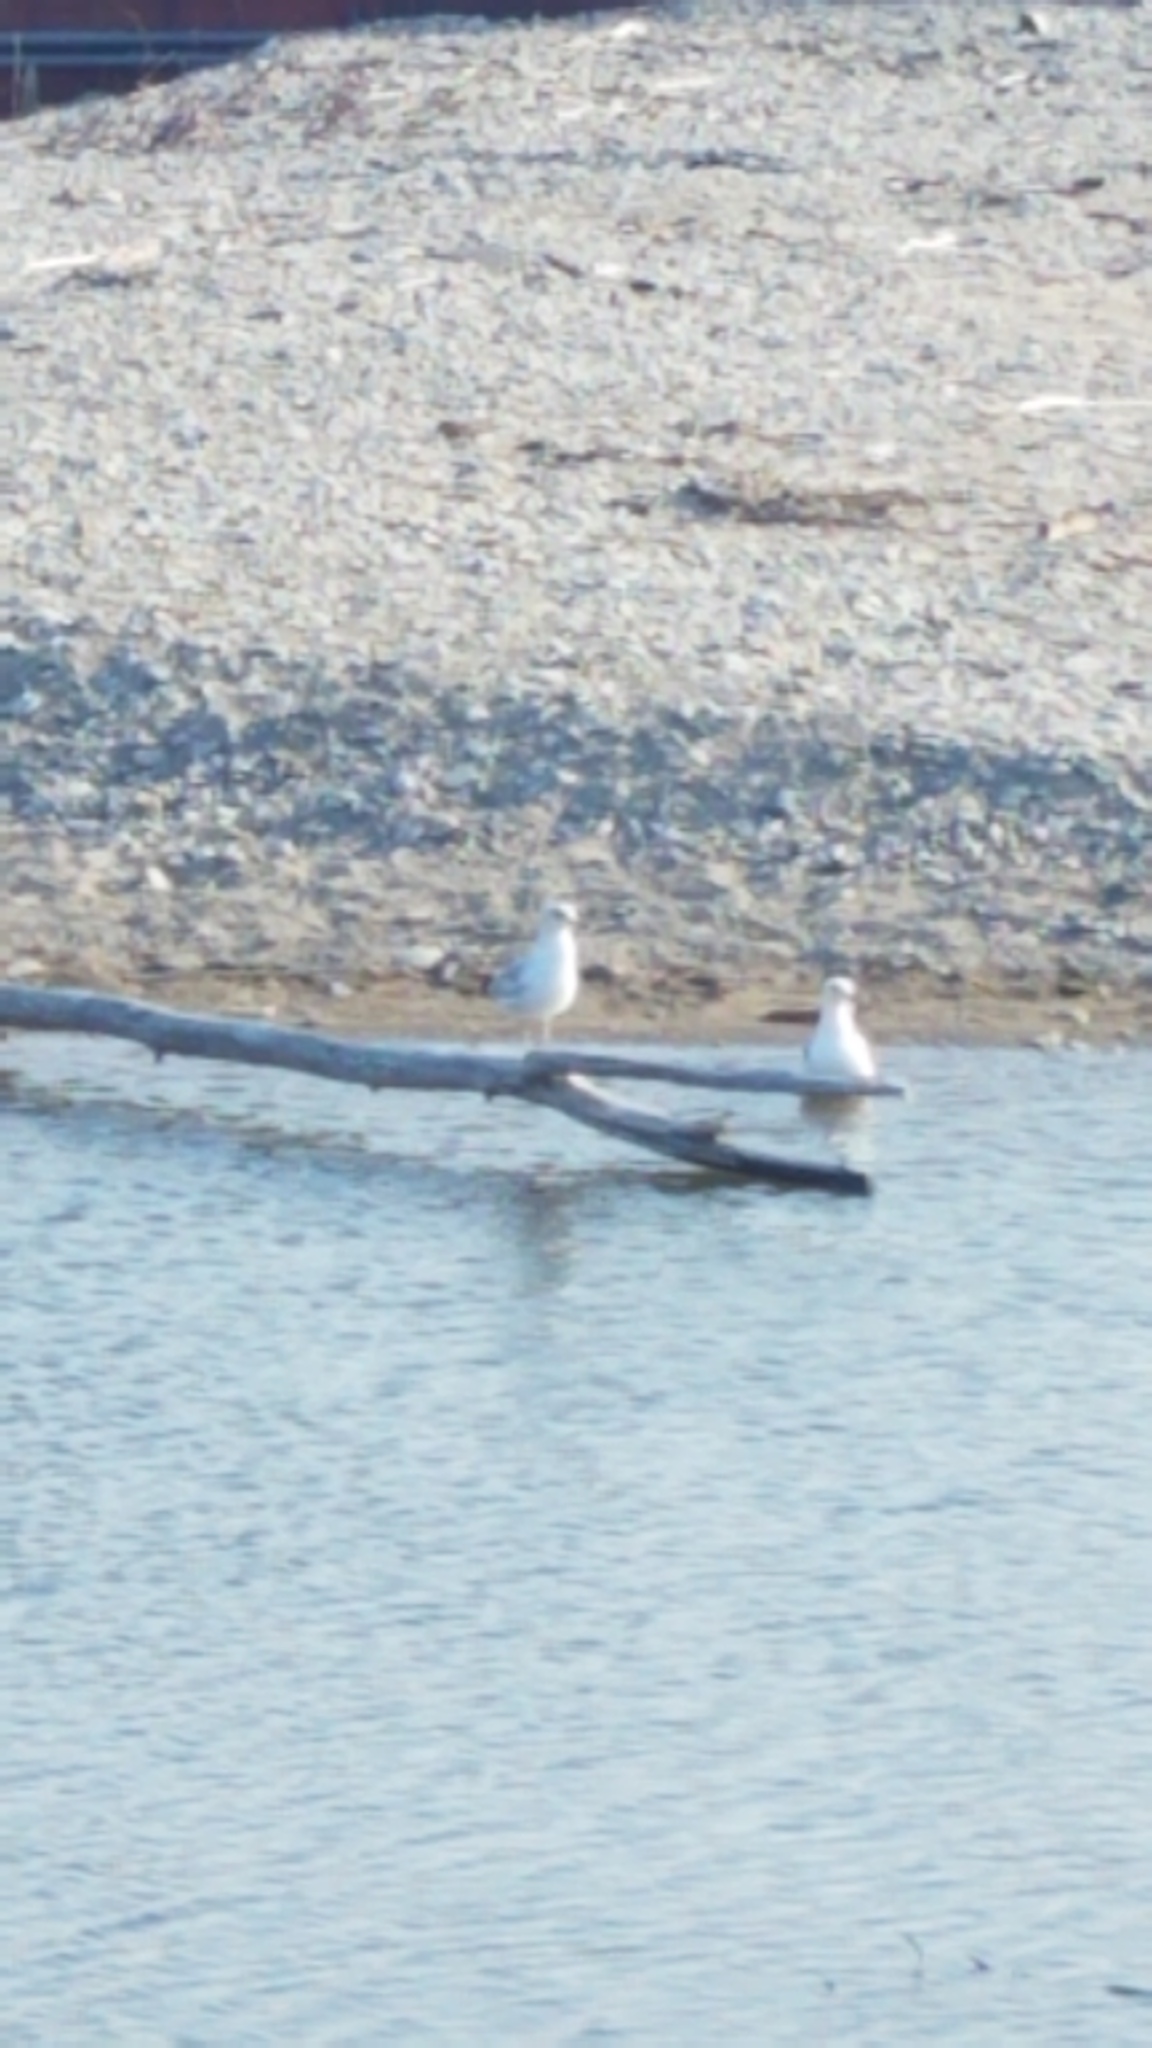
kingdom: Animalia
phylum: Chordata
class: Aves
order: Charadriiformes
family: Laridae
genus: Larus
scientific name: Larus delawarensis
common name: Ring-billed gull
